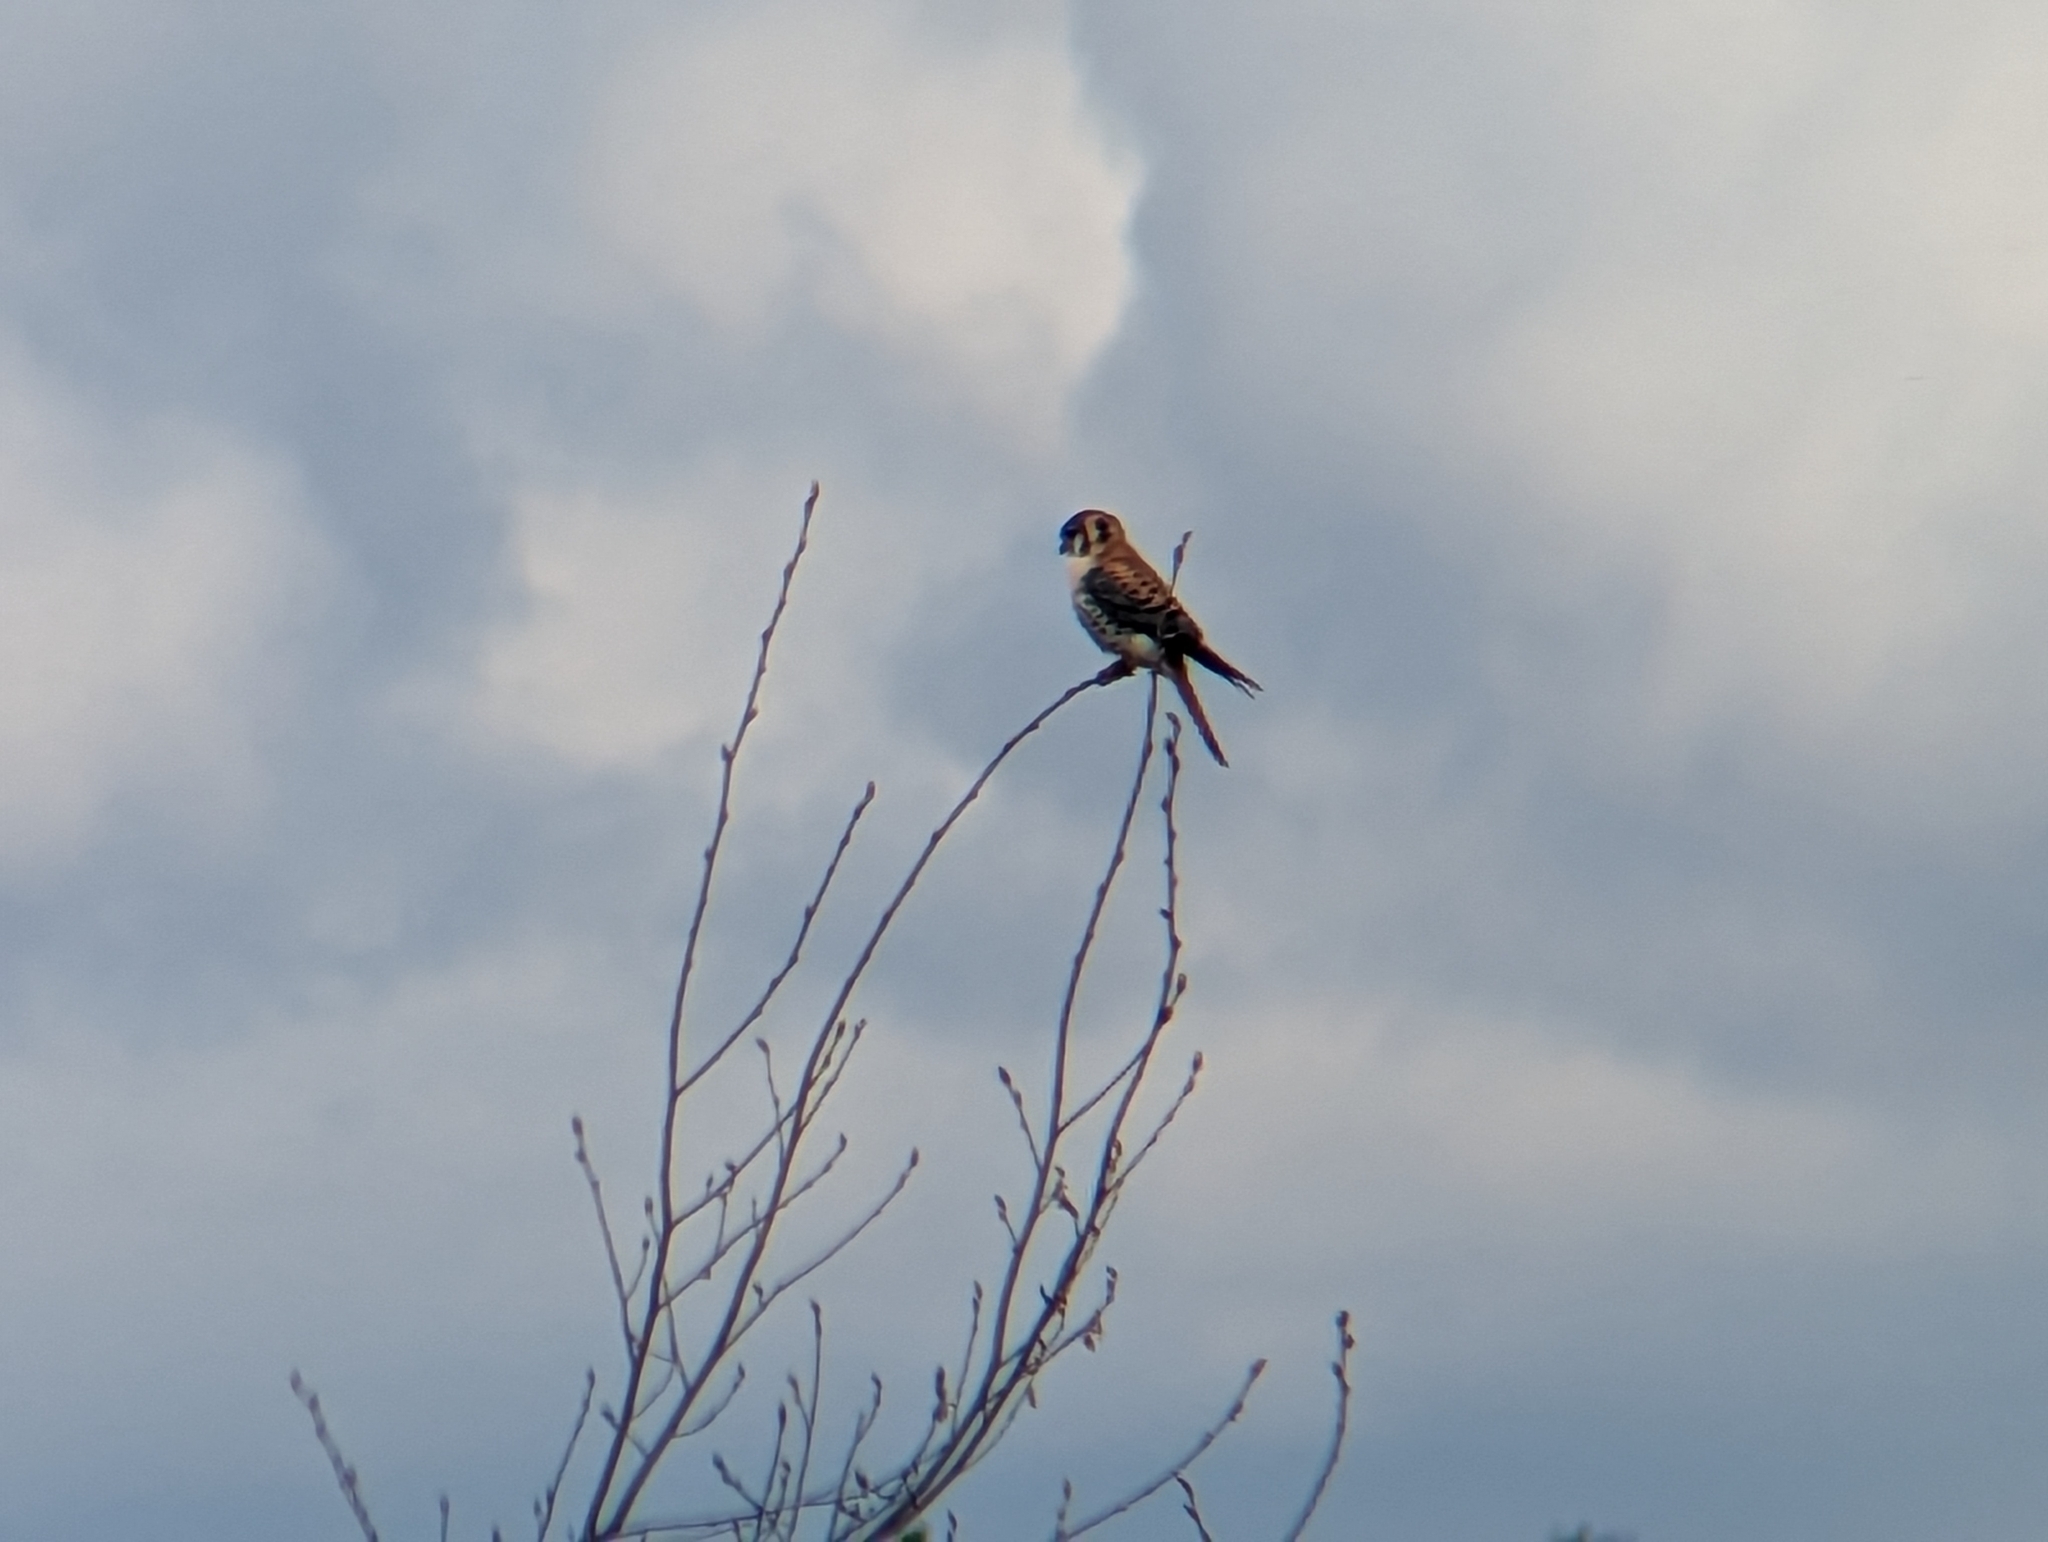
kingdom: Animalia
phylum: Chordata
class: Aves
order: Falconiformes
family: Falconidae
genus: Falco
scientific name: Falco sparverius
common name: American kestrel
